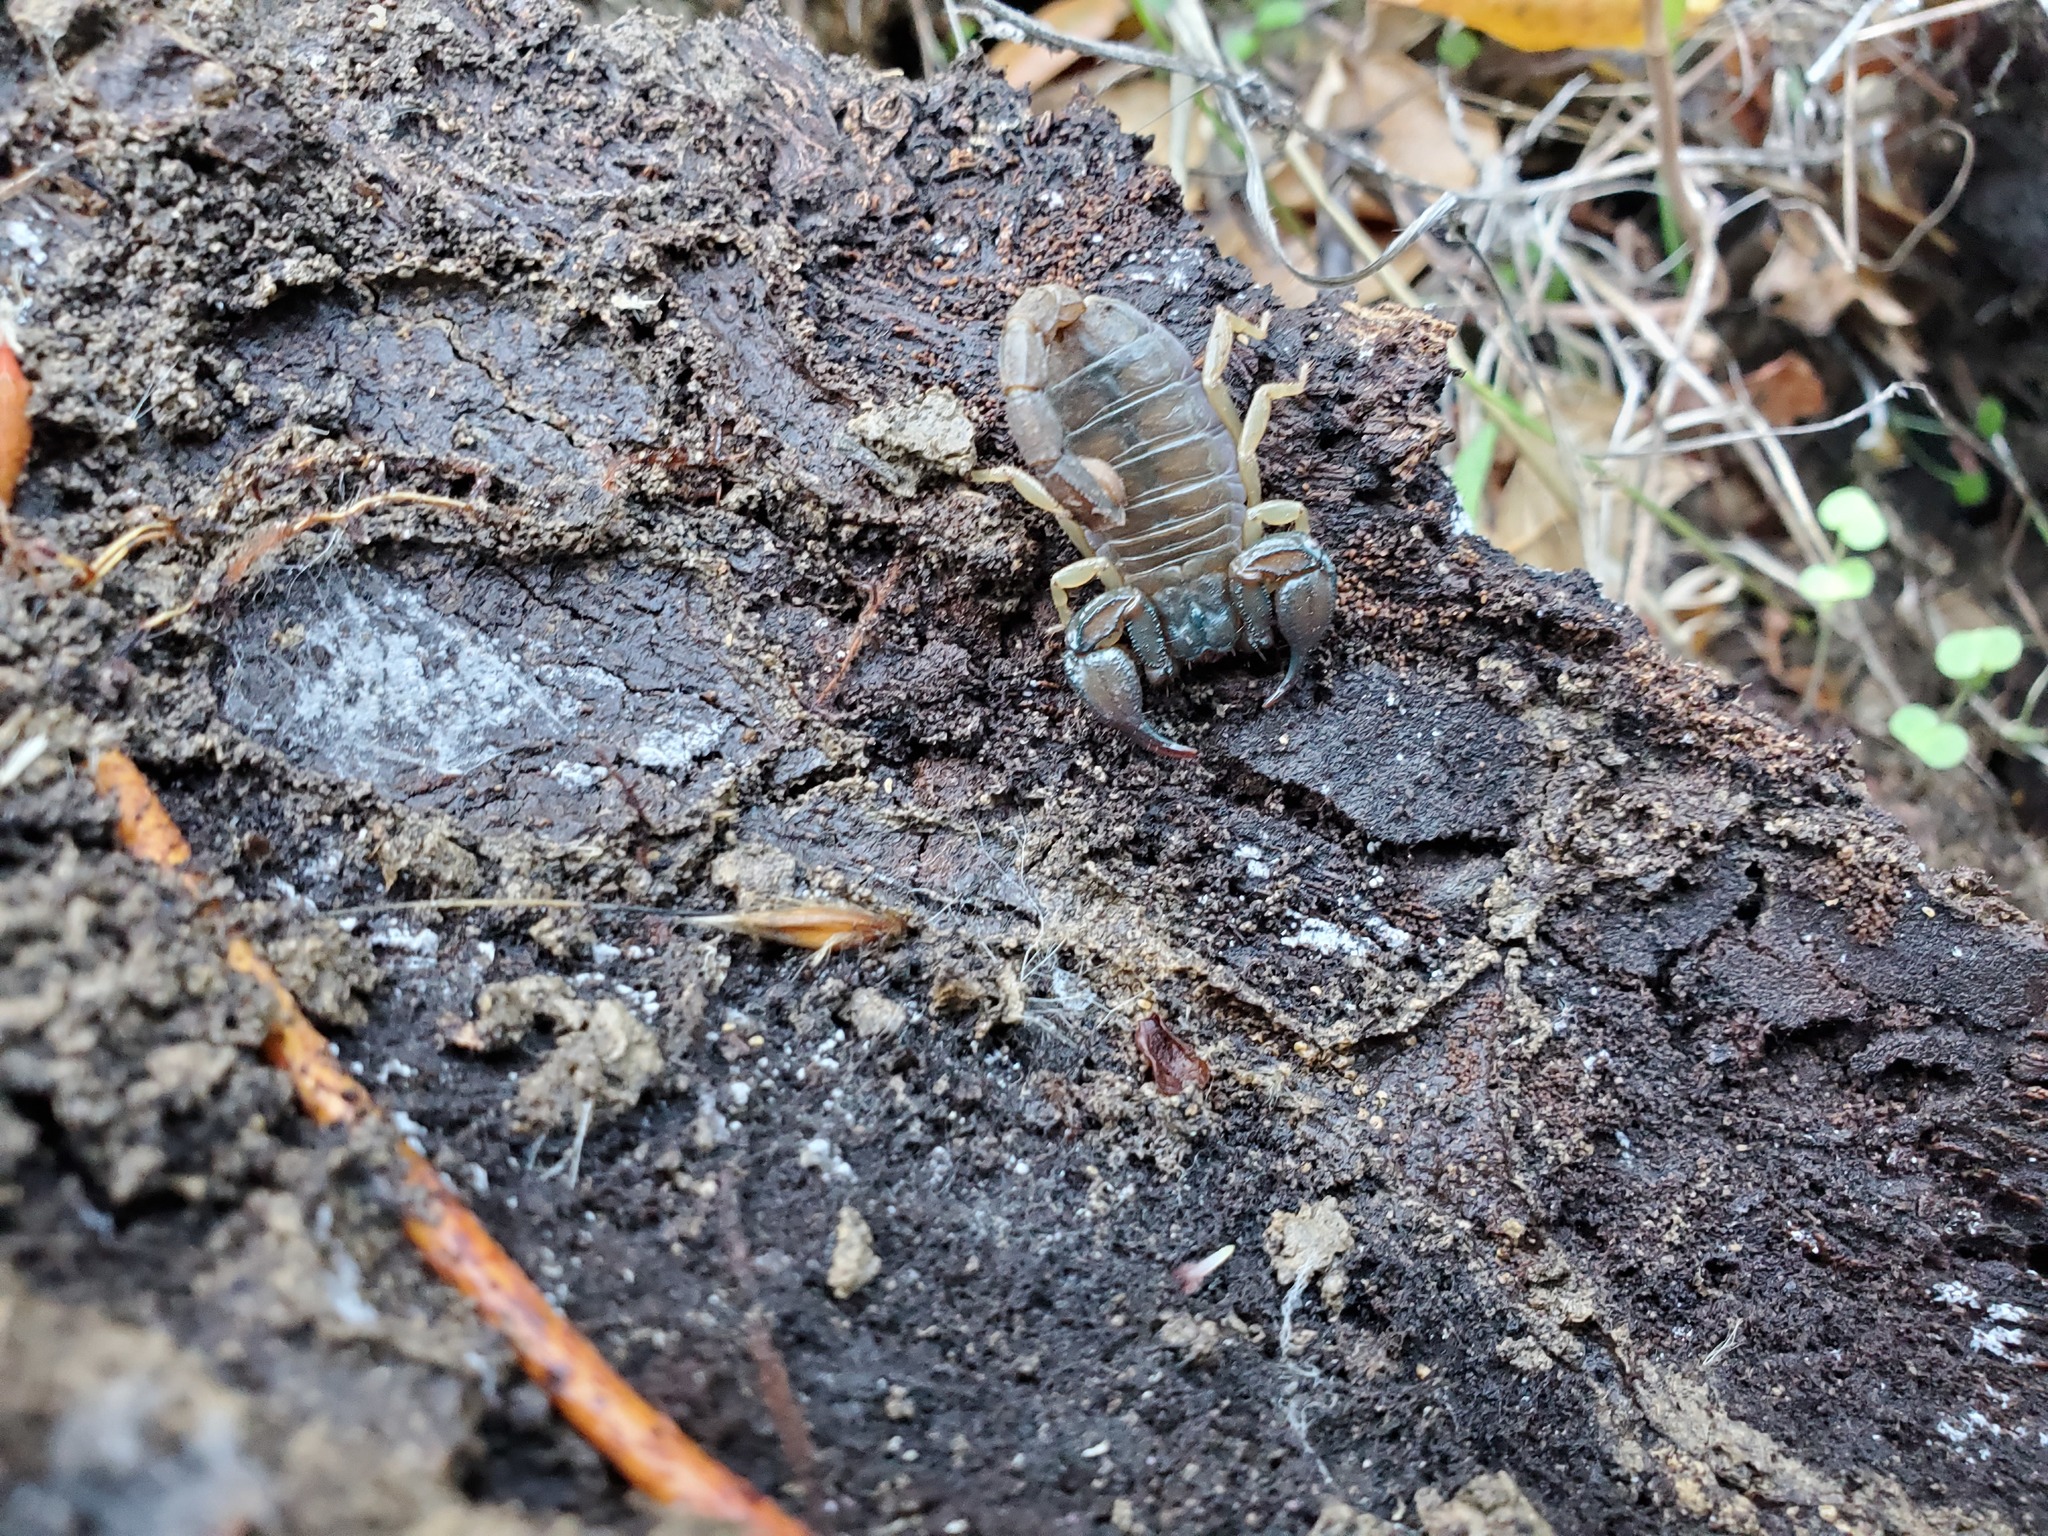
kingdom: Animalia
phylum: Arthropoda
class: Arachnida
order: Scorpiones
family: Chactidae
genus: Uroctonus
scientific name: Uroctonus mordax
